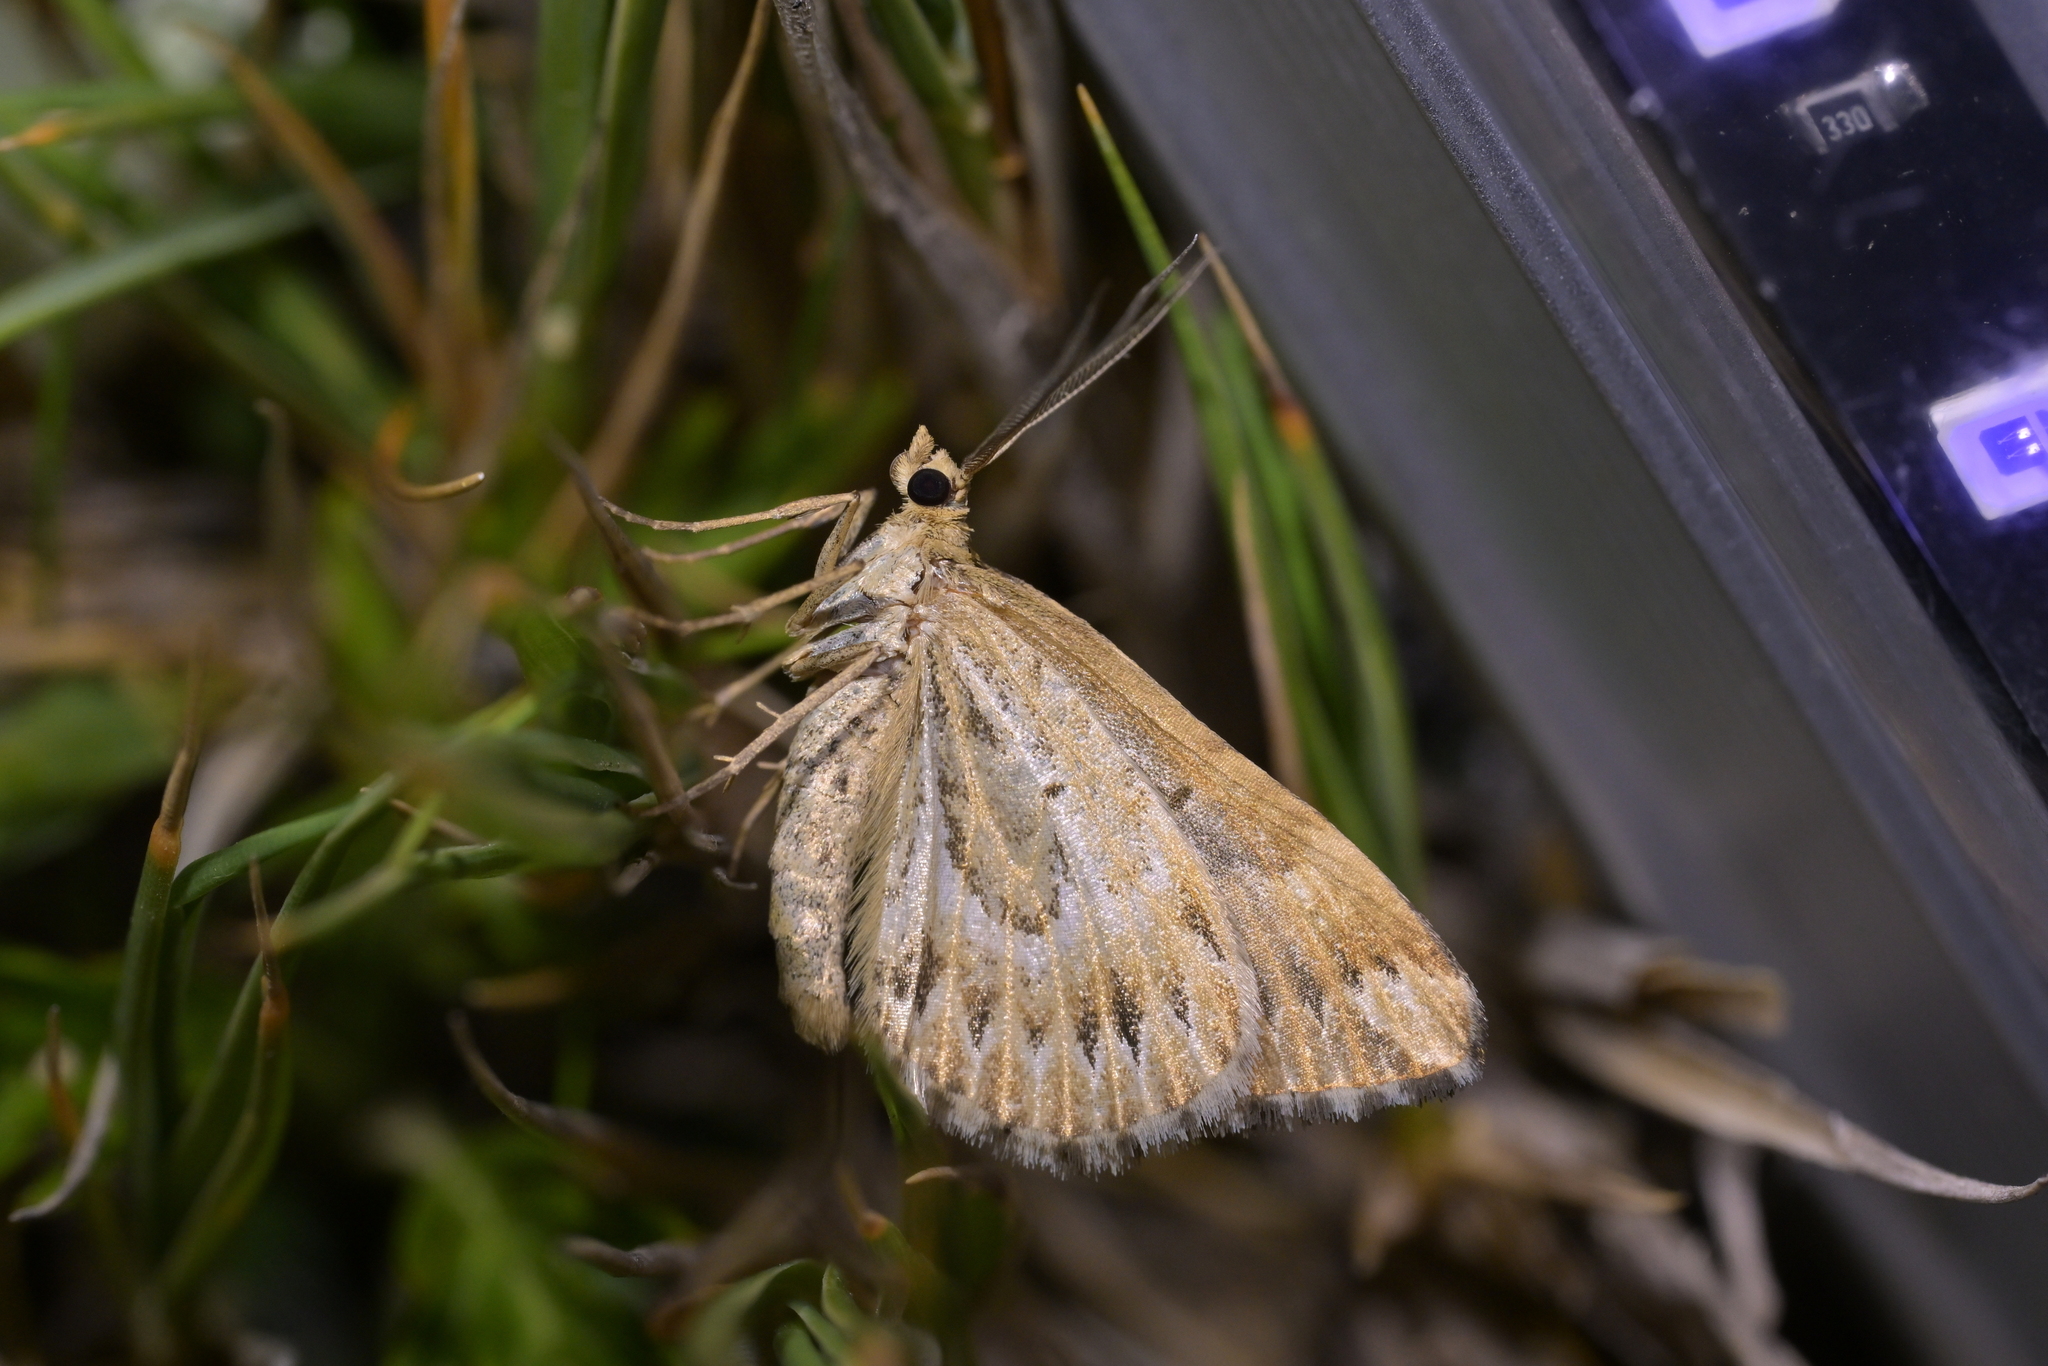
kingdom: Animalia
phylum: Arthropoda
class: Insecta
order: Lepidoptera
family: Geometridae
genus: Asaphodes
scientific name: Asaphodes clarata
